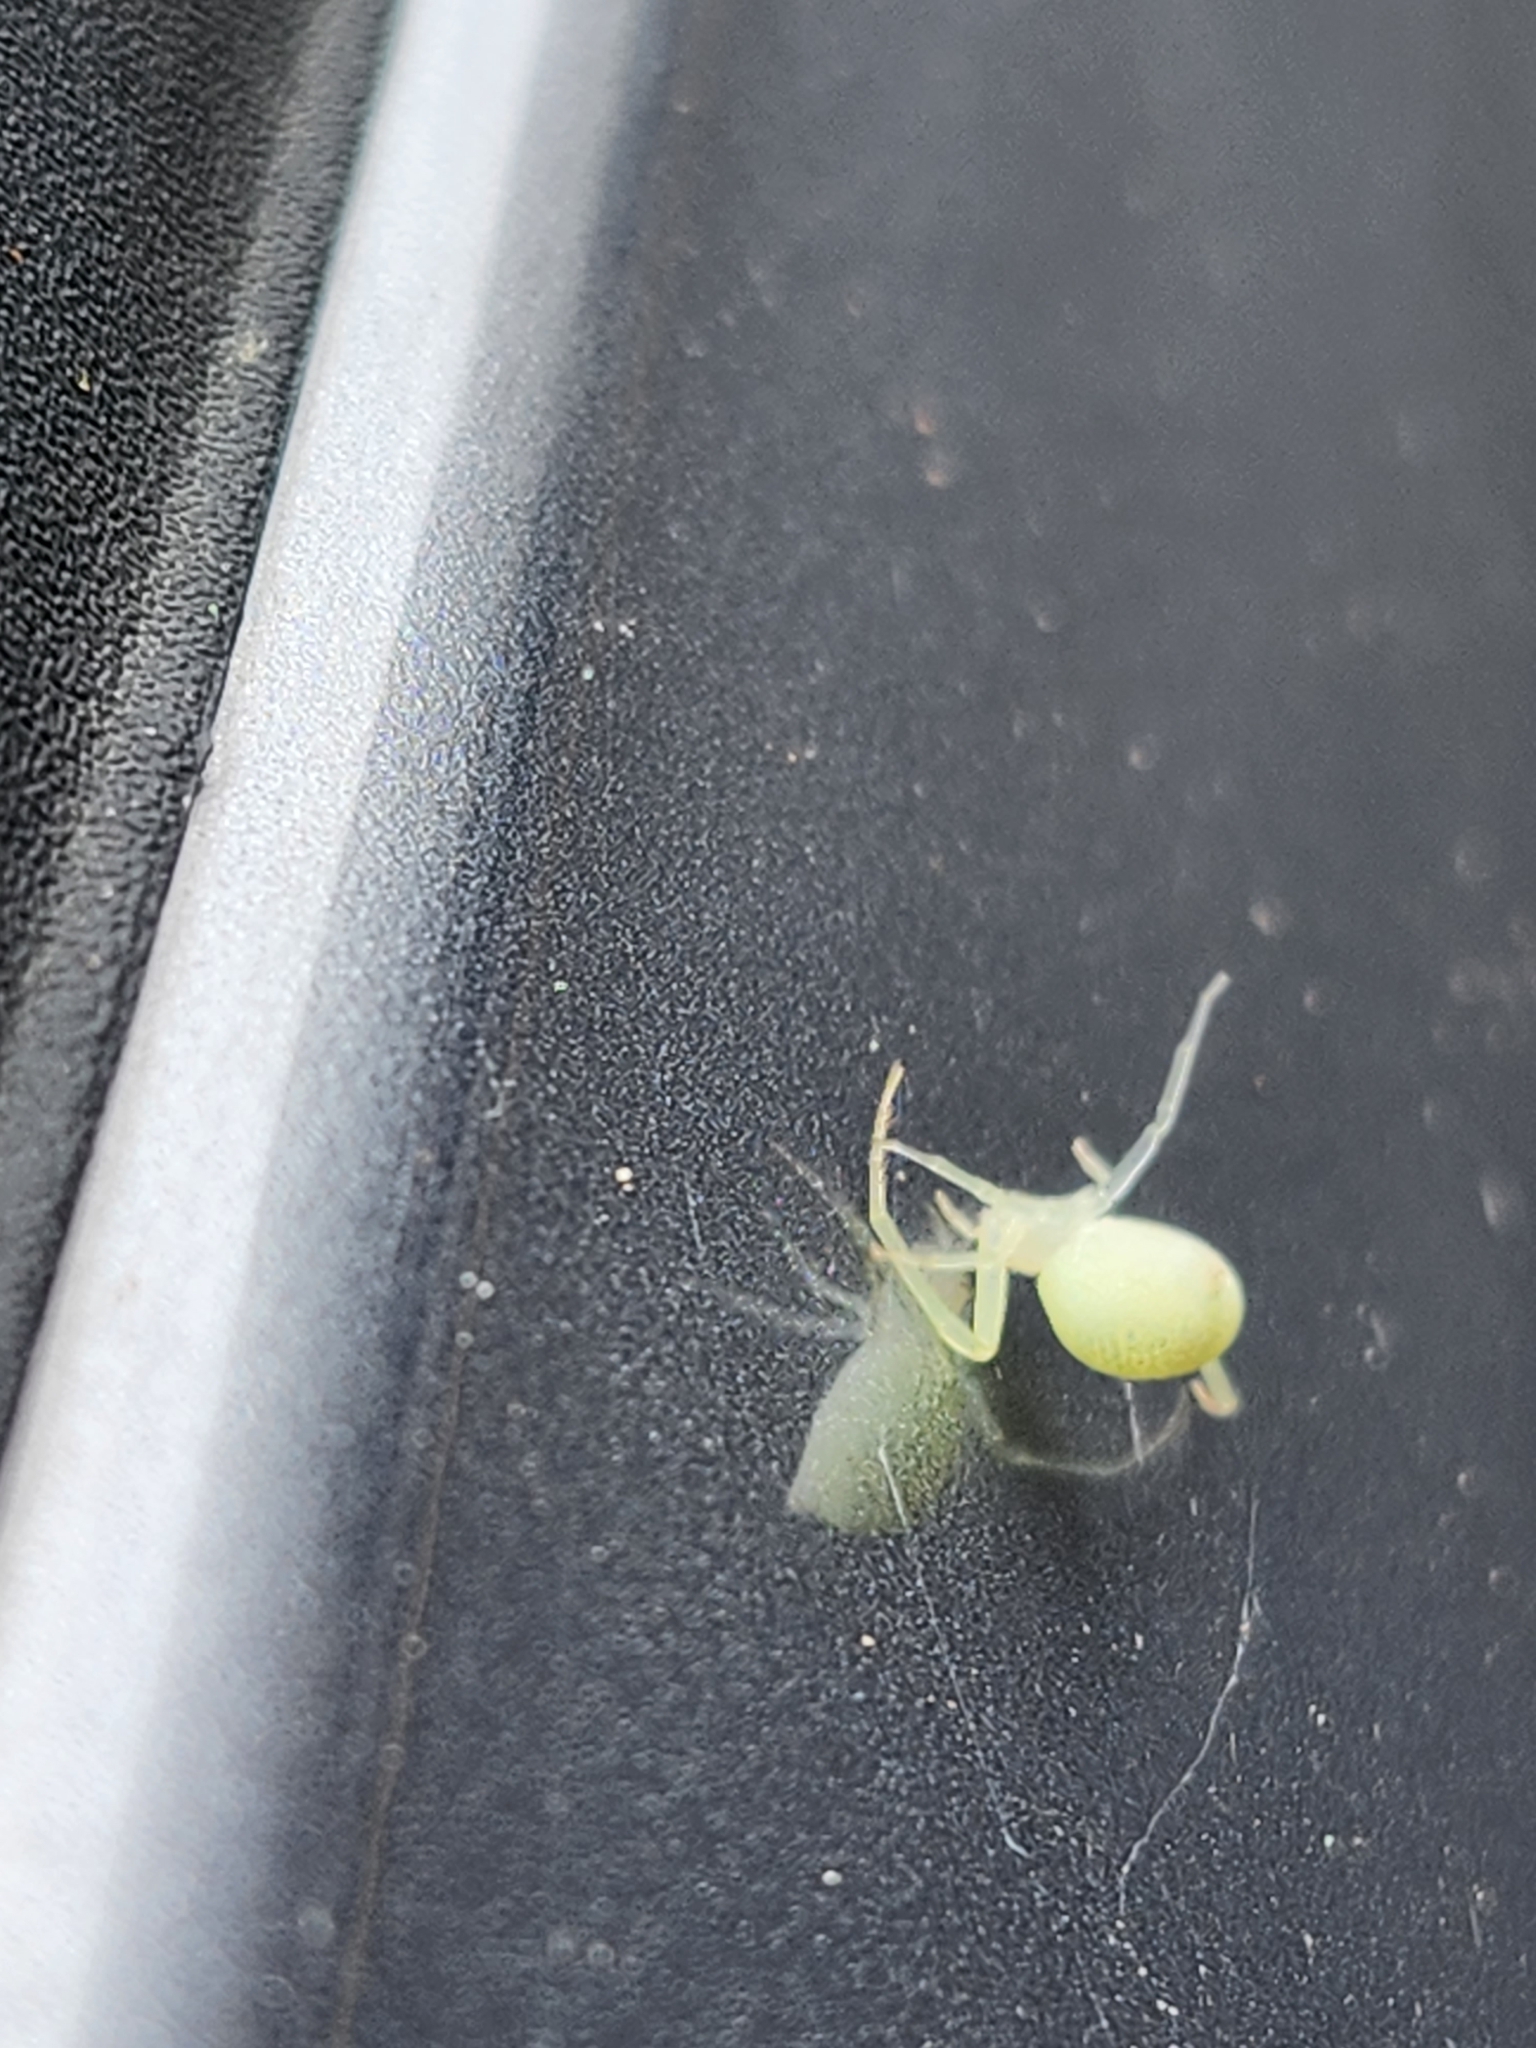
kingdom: Animalia
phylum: Arthropoda
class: Arachnida
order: Araneae
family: Thomisidae
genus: Misumessus
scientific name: Misumessus oblongus
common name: American green crab spider
